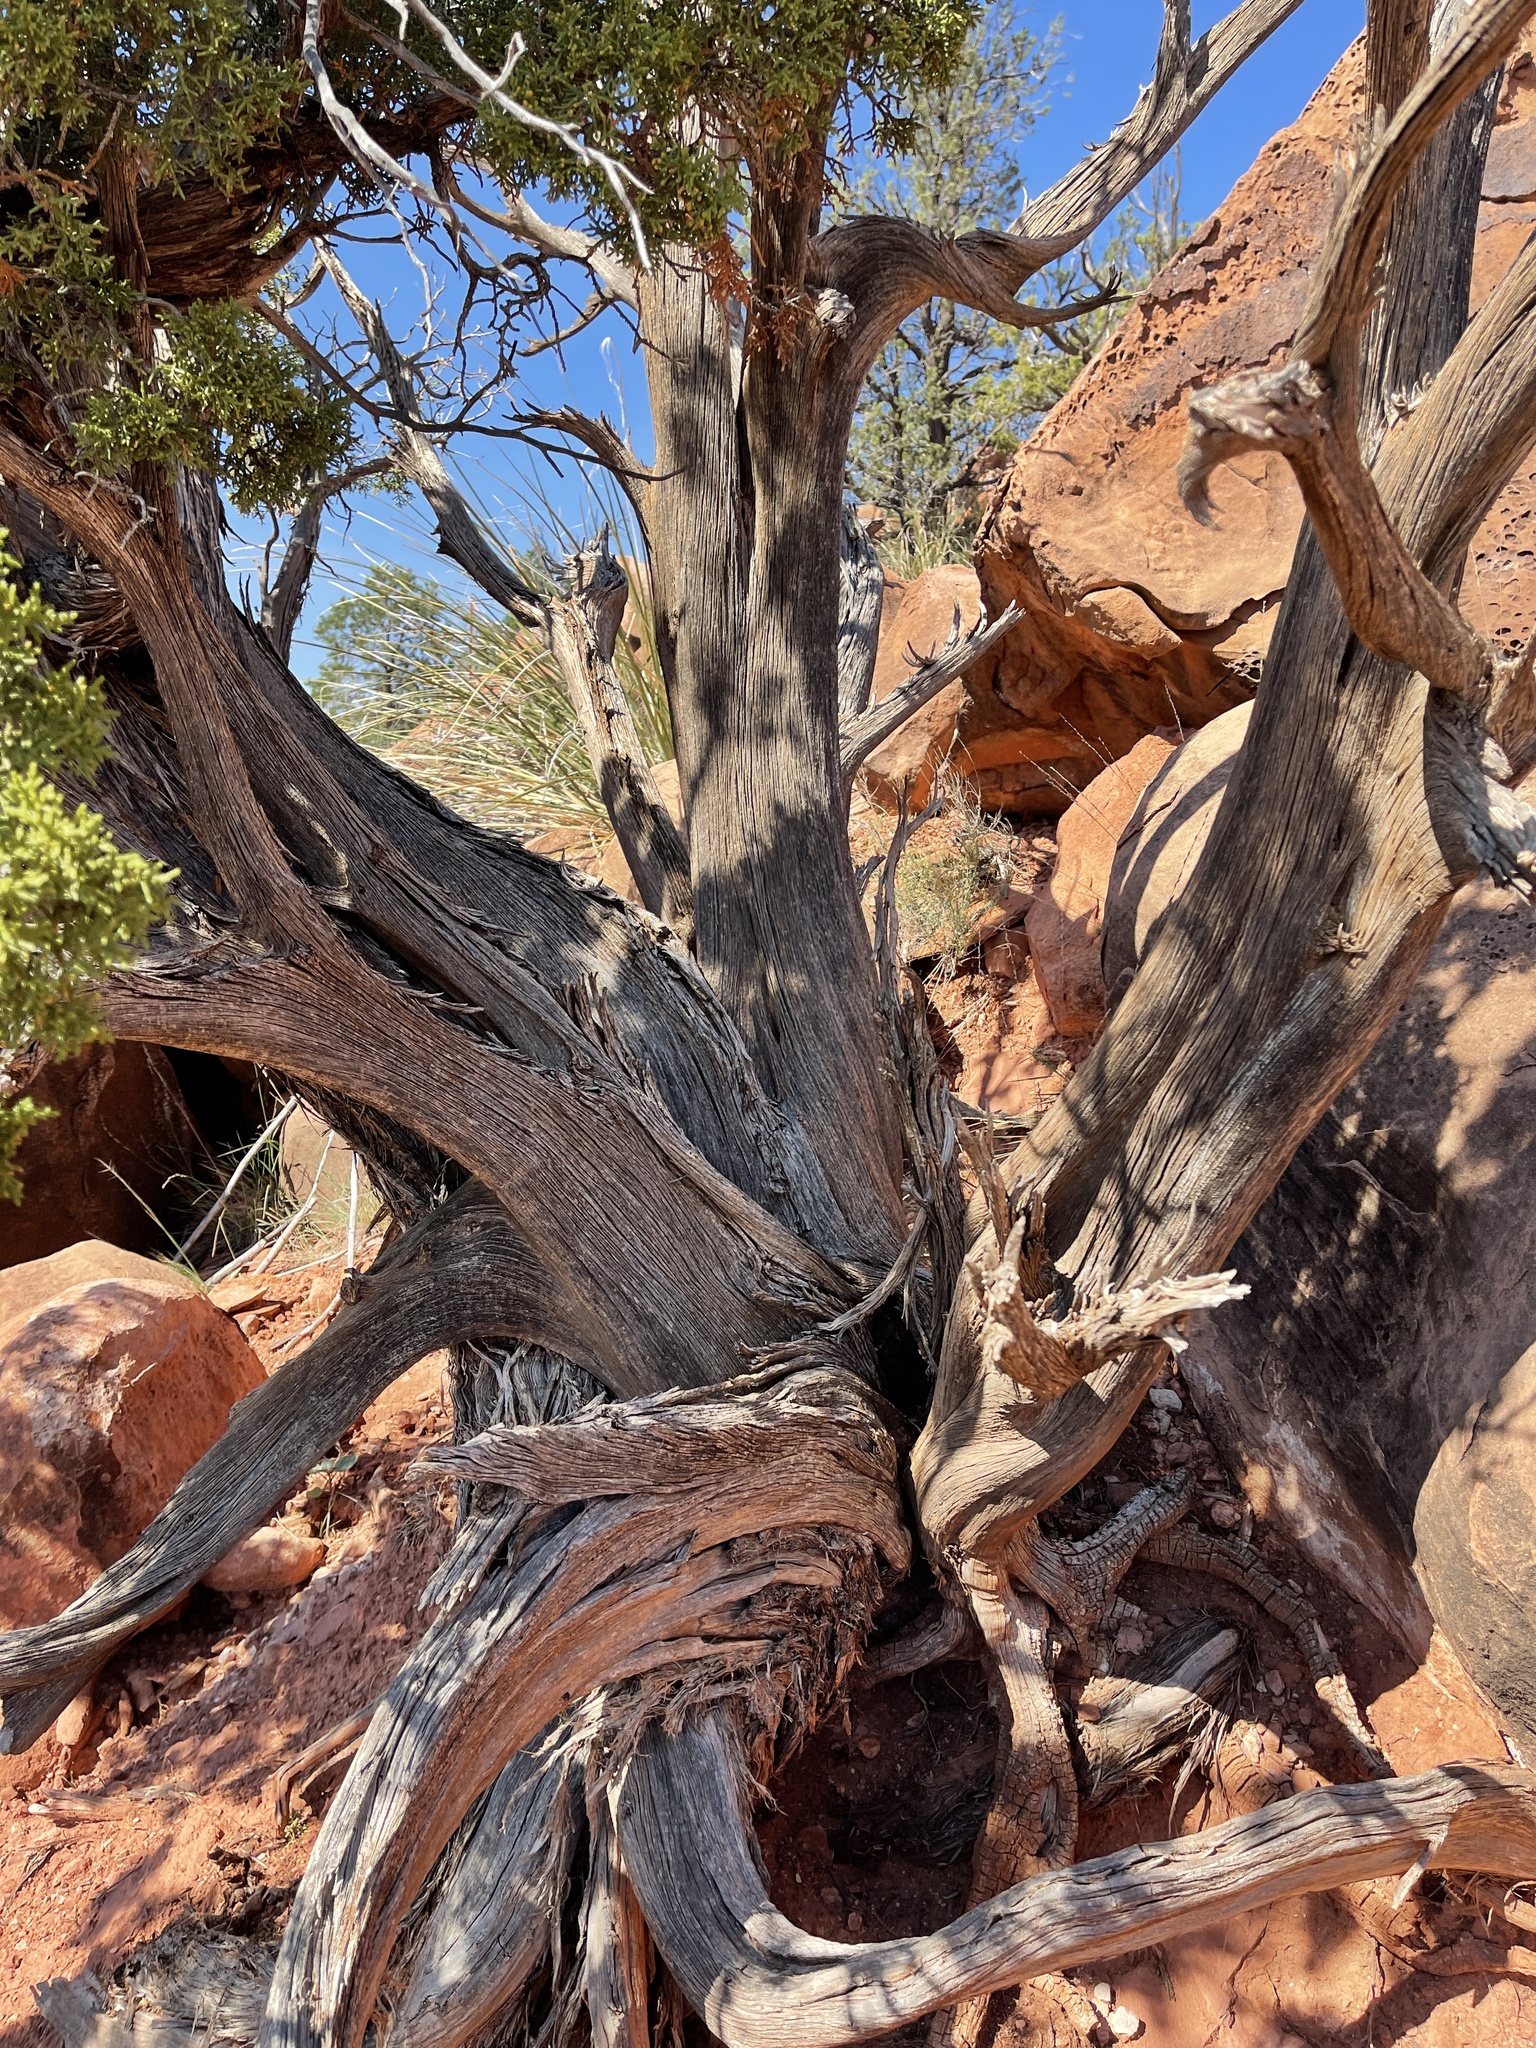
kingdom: Plantae
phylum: Tracheophyta
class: Pinopsida
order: Pinales
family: Cupressaceae
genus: Juniperus
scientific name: Juniperus osteosperma
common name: Utah juniper
